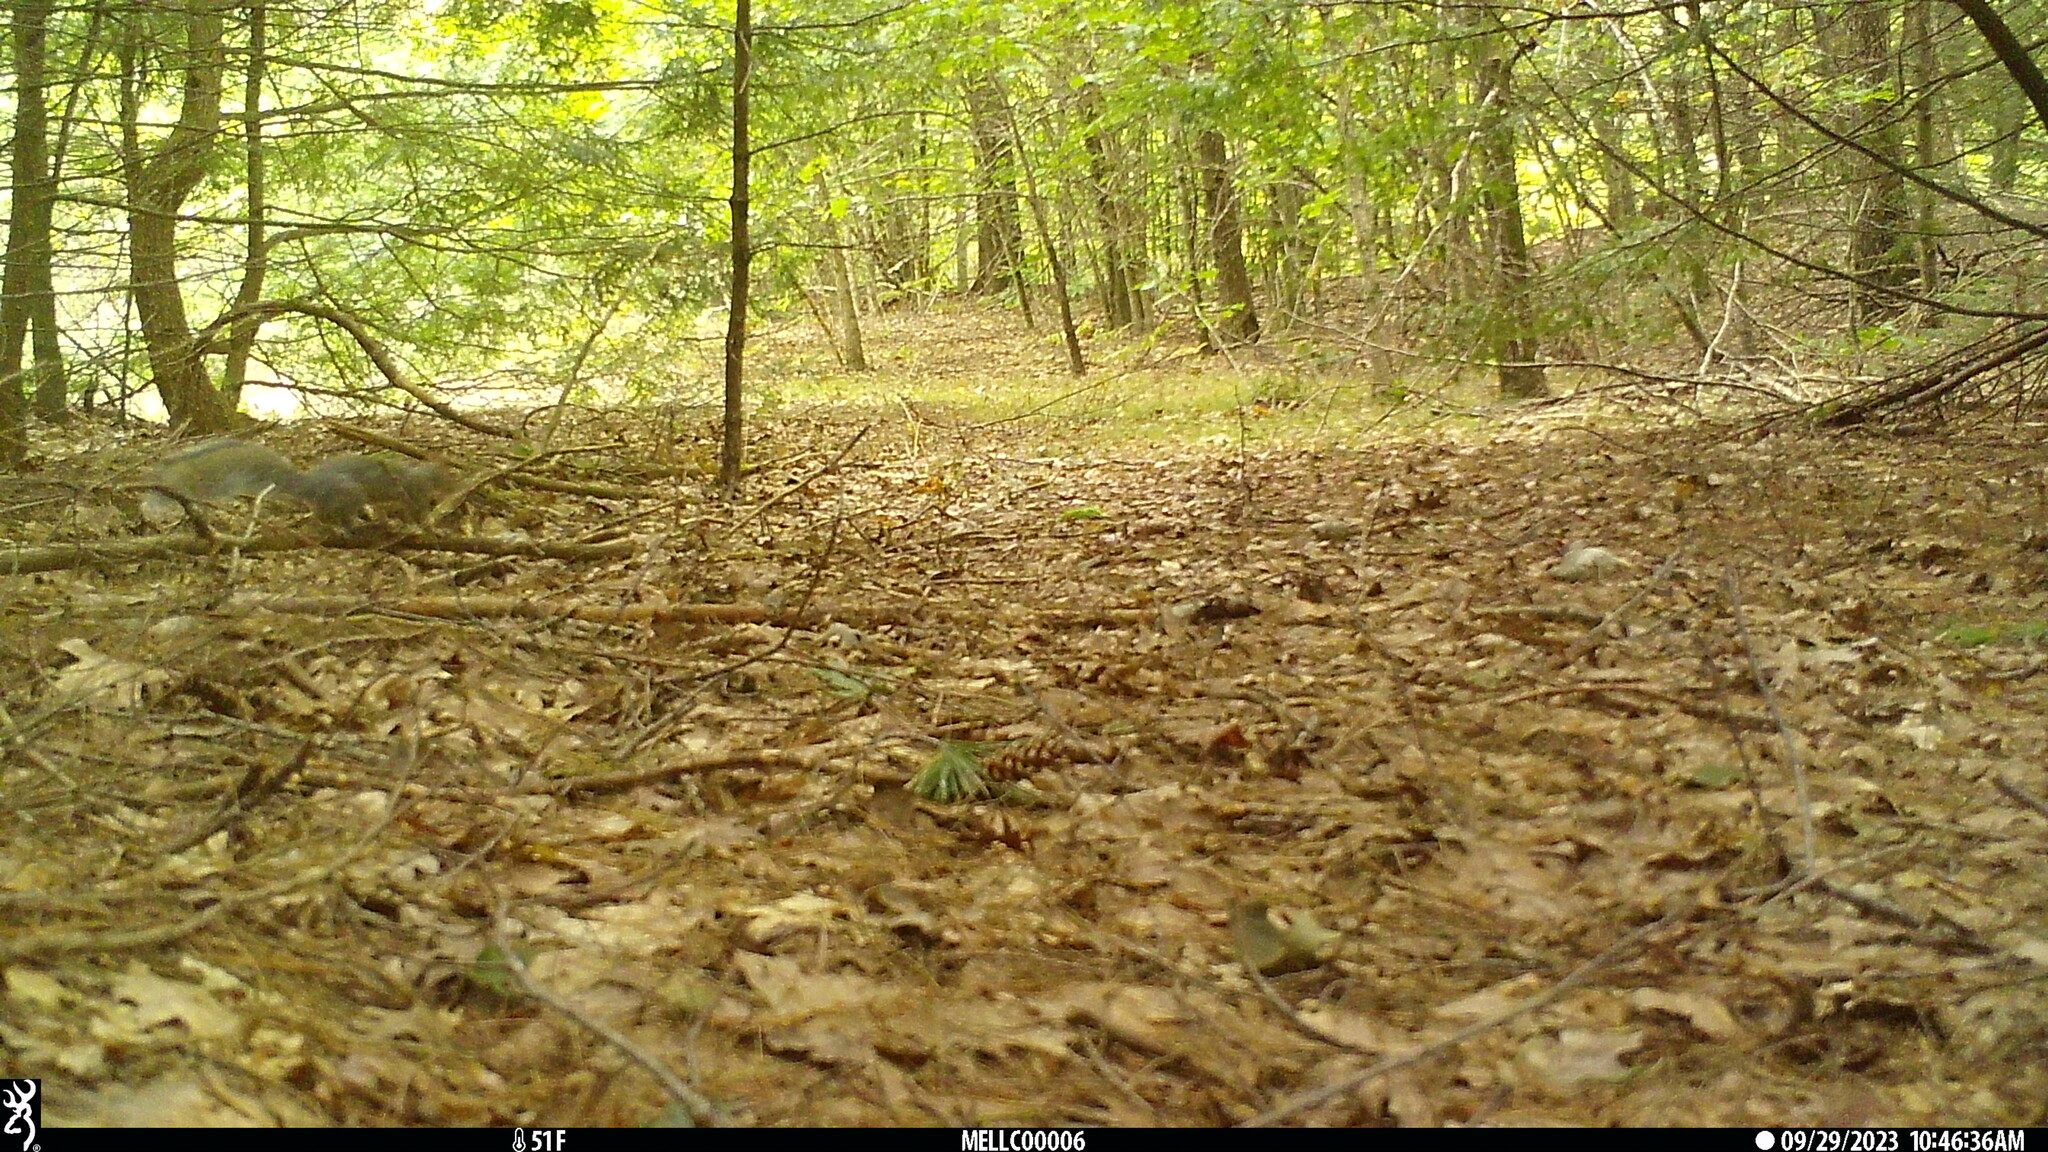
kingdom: Animalia
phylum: Chordata
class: Mammalia
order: Rodentia
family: Sciuridae
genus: Sciurus
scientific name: Sciurus carolinensis
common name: Eastern gray squirrel
